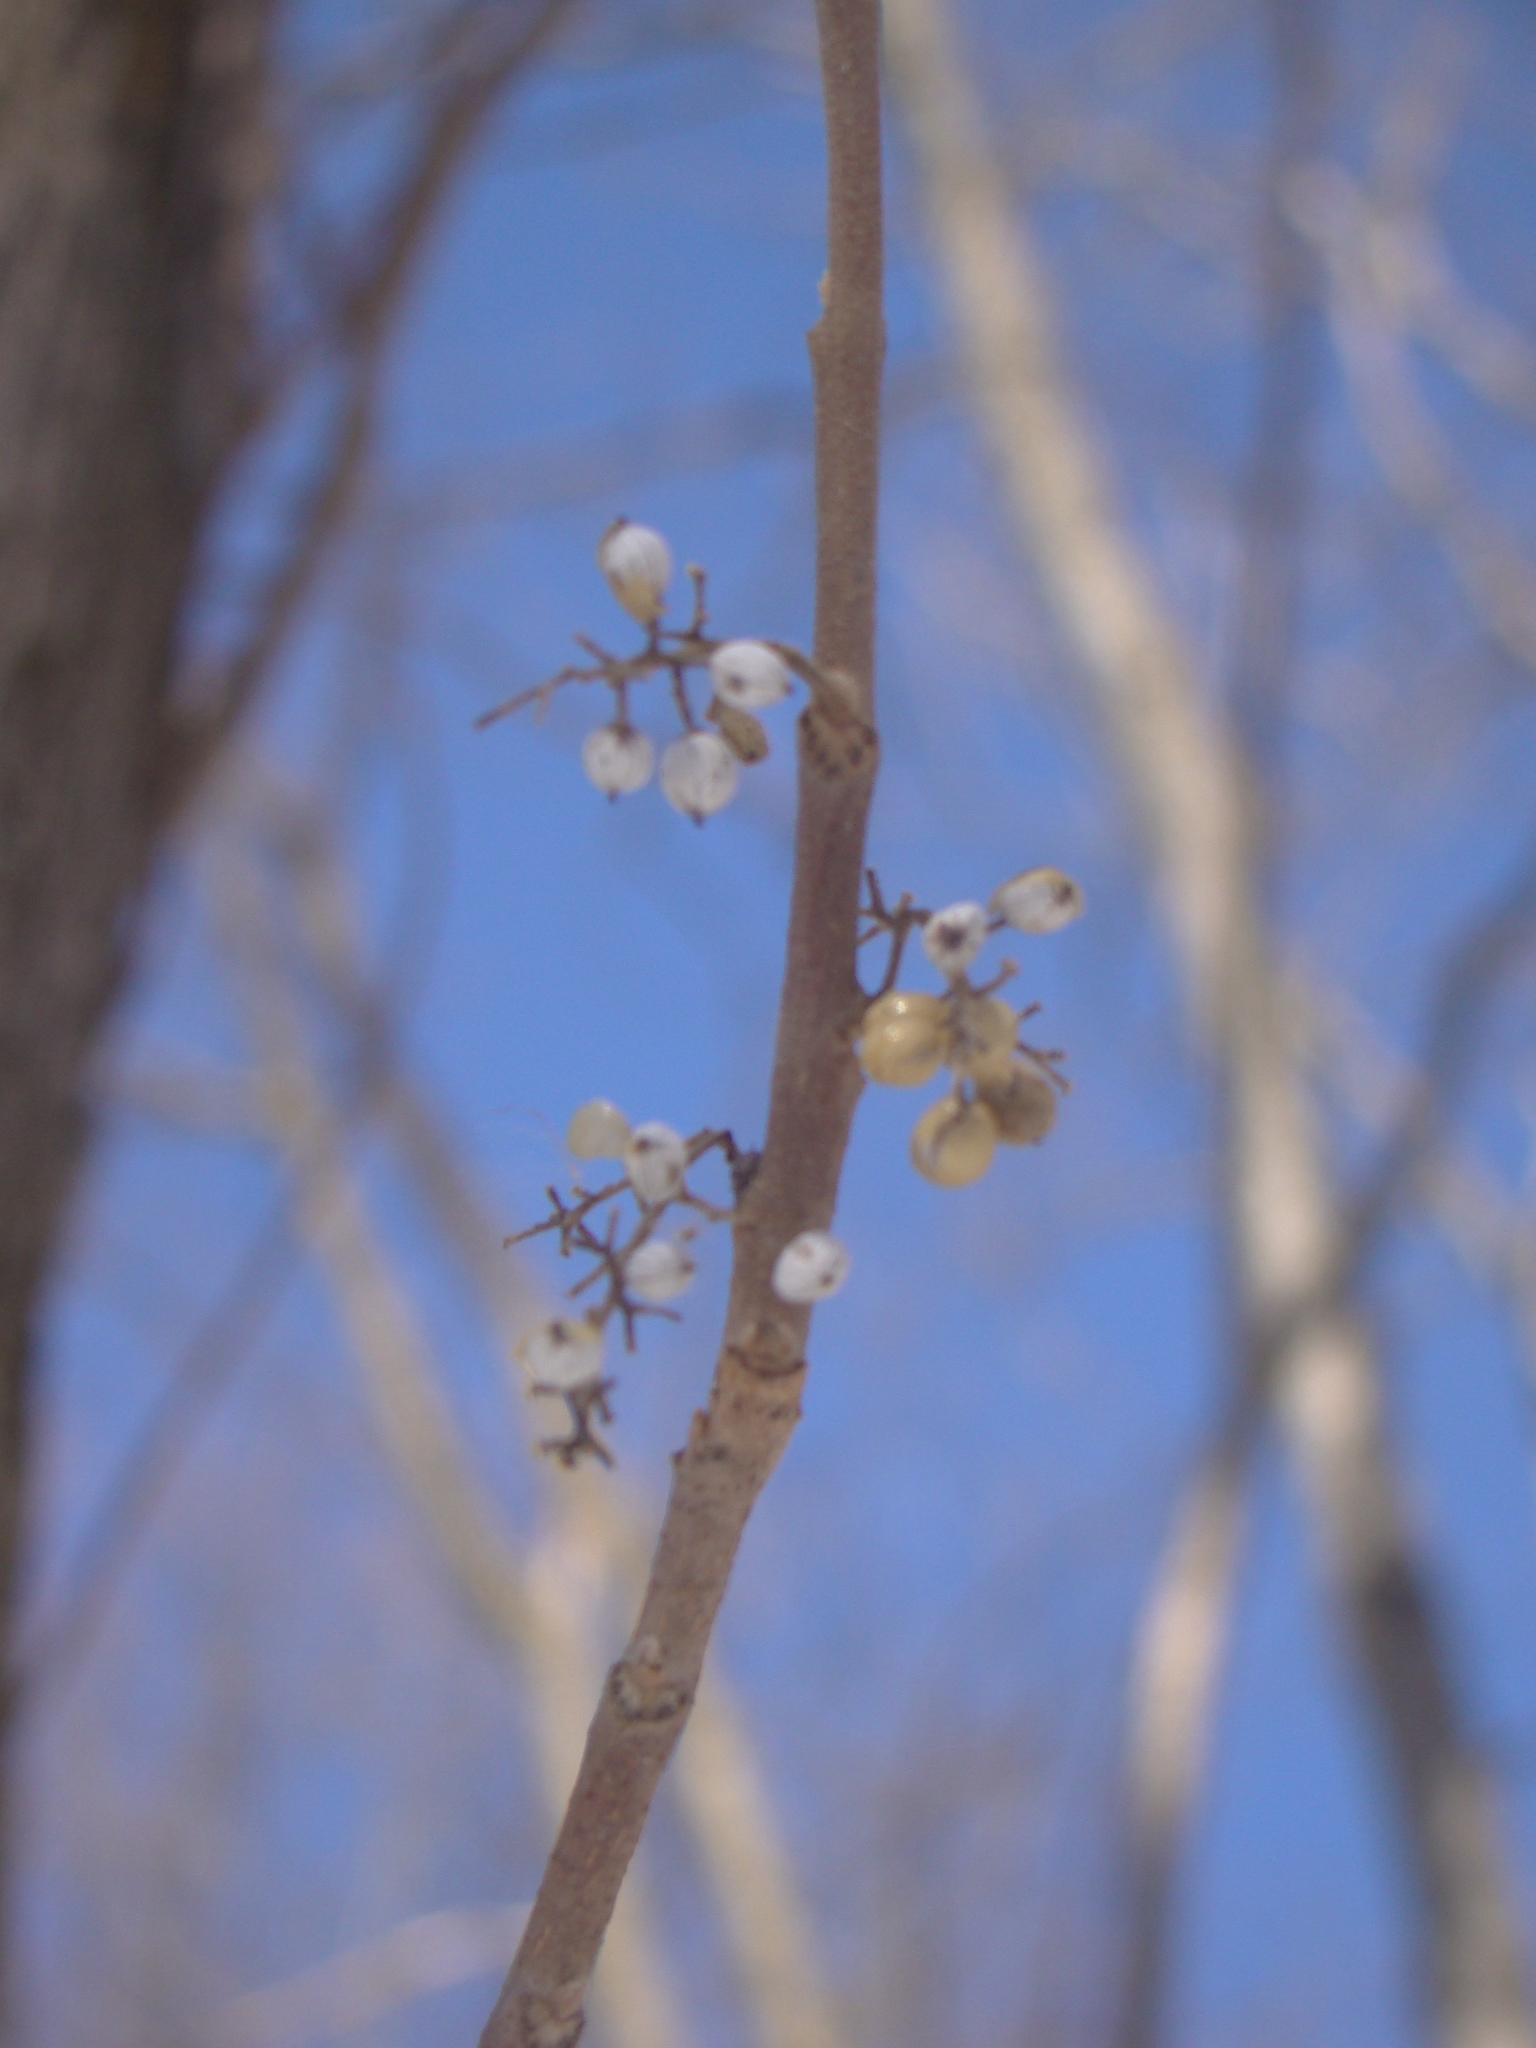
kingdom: Plantae
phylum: Tracheophyta
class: Magnoliopsida
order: Sapindales
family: Anacardiaceae
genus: Toxicodendron
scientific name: Toxicodendron radicans
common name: Poison ivy
